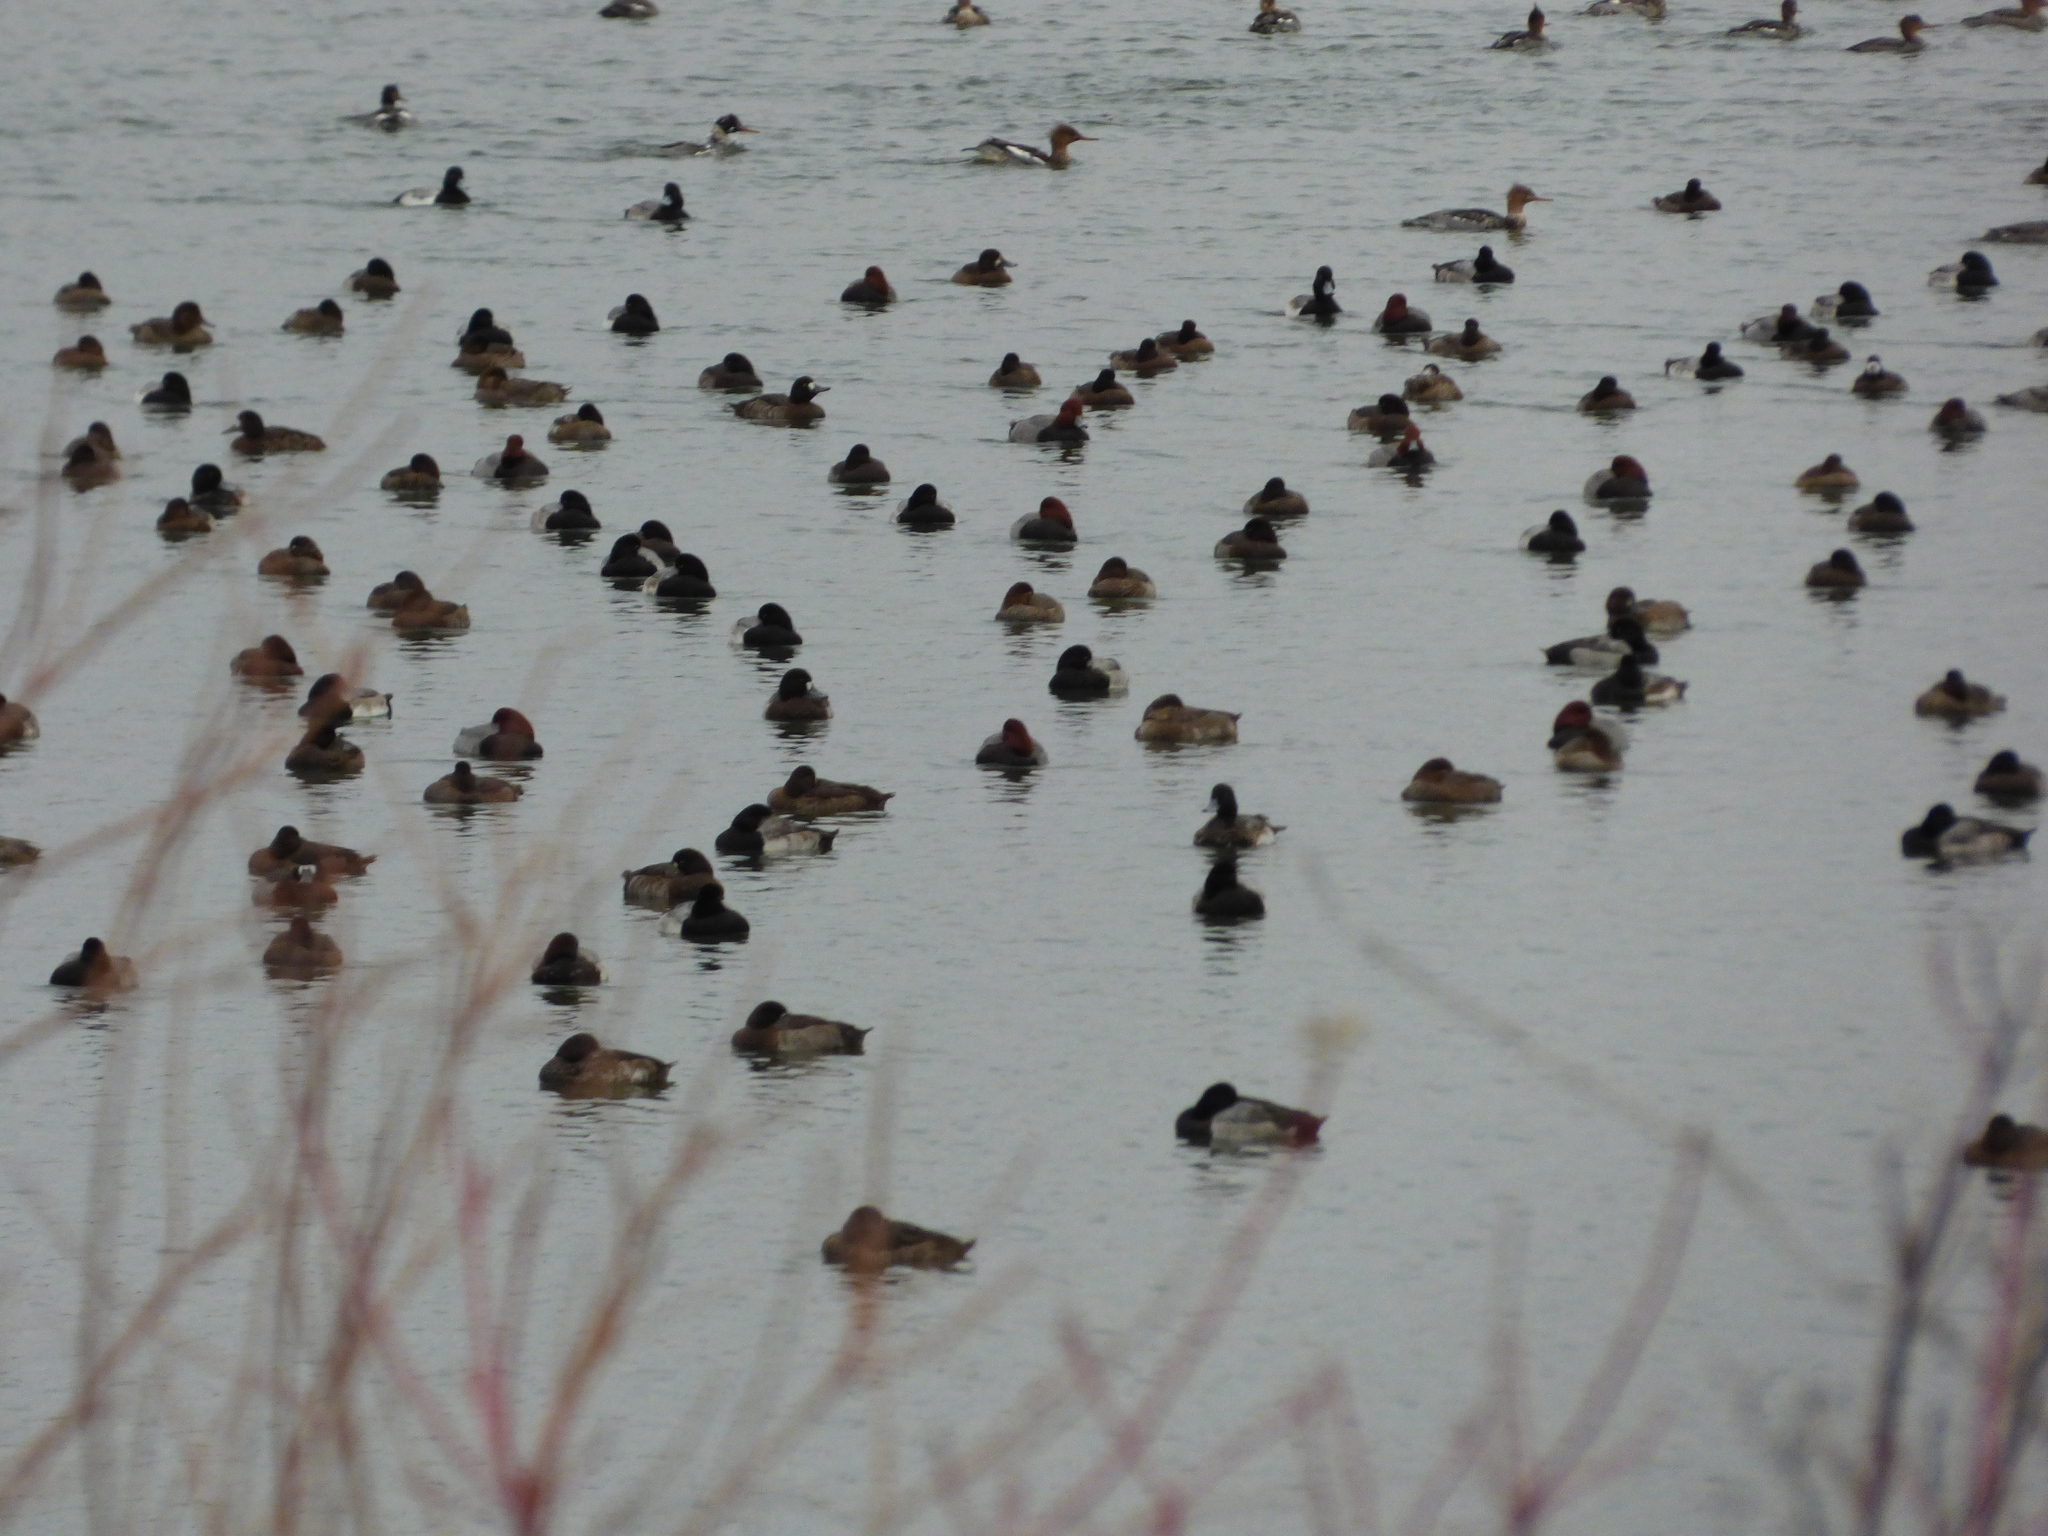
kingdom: Animalia
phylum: Chordata
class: Aves
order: Anseriformes
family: Anatidae
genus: Mergus
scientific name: Mergus serrator
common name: Red-breasted merganser
